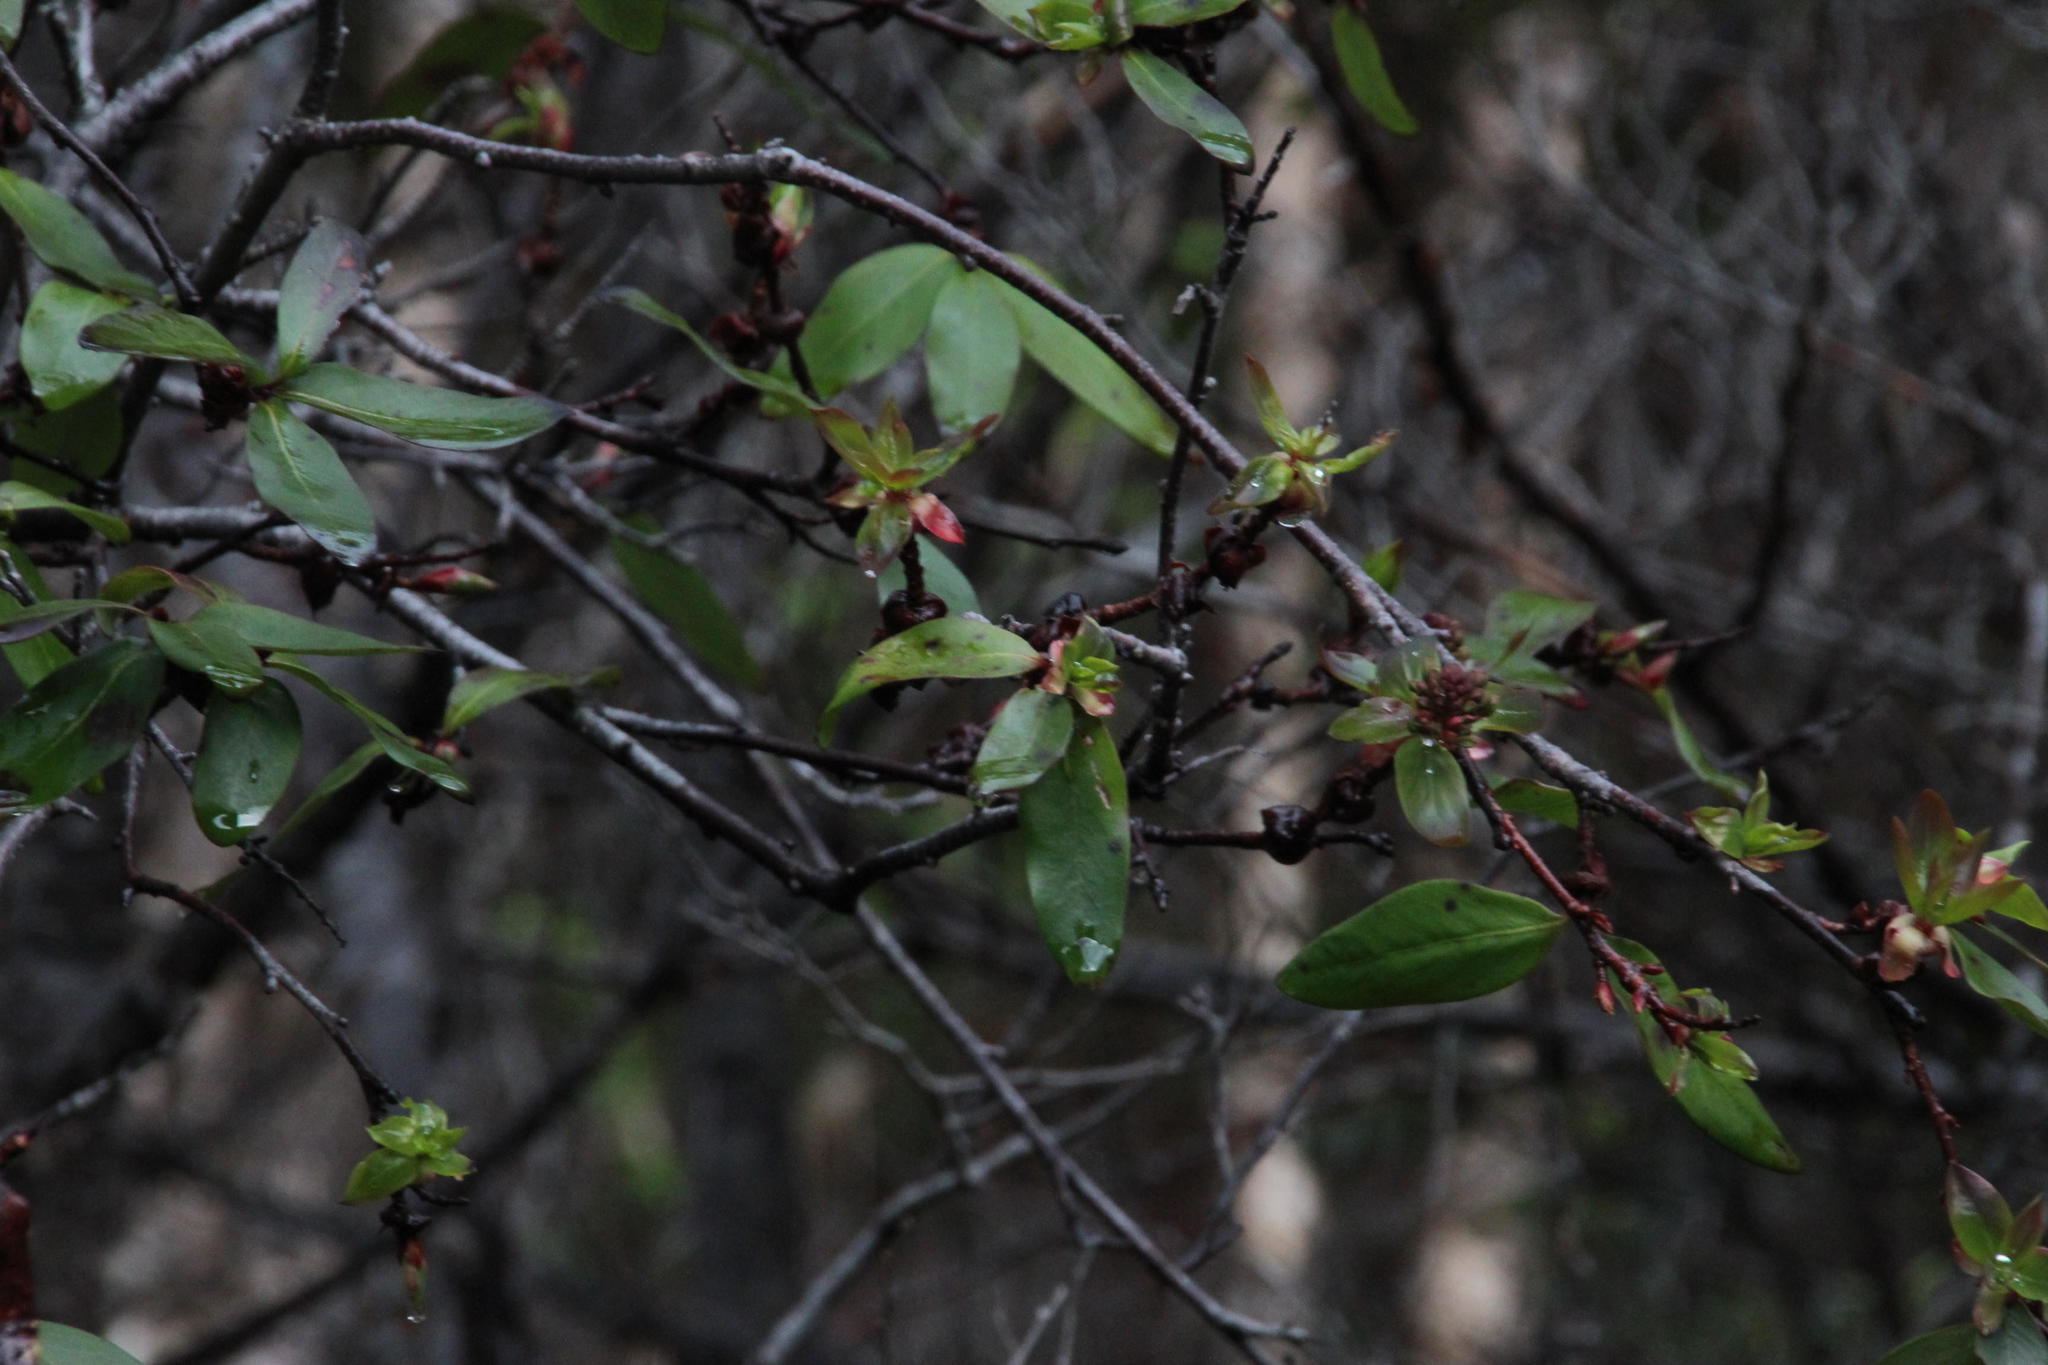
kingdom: Plantae
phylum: Tracheophyta
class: Magnoliopsida
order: Proteales
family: Proteaceae
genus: Embothrium
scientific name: Embothrium coccineum
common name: Chilean firebush
